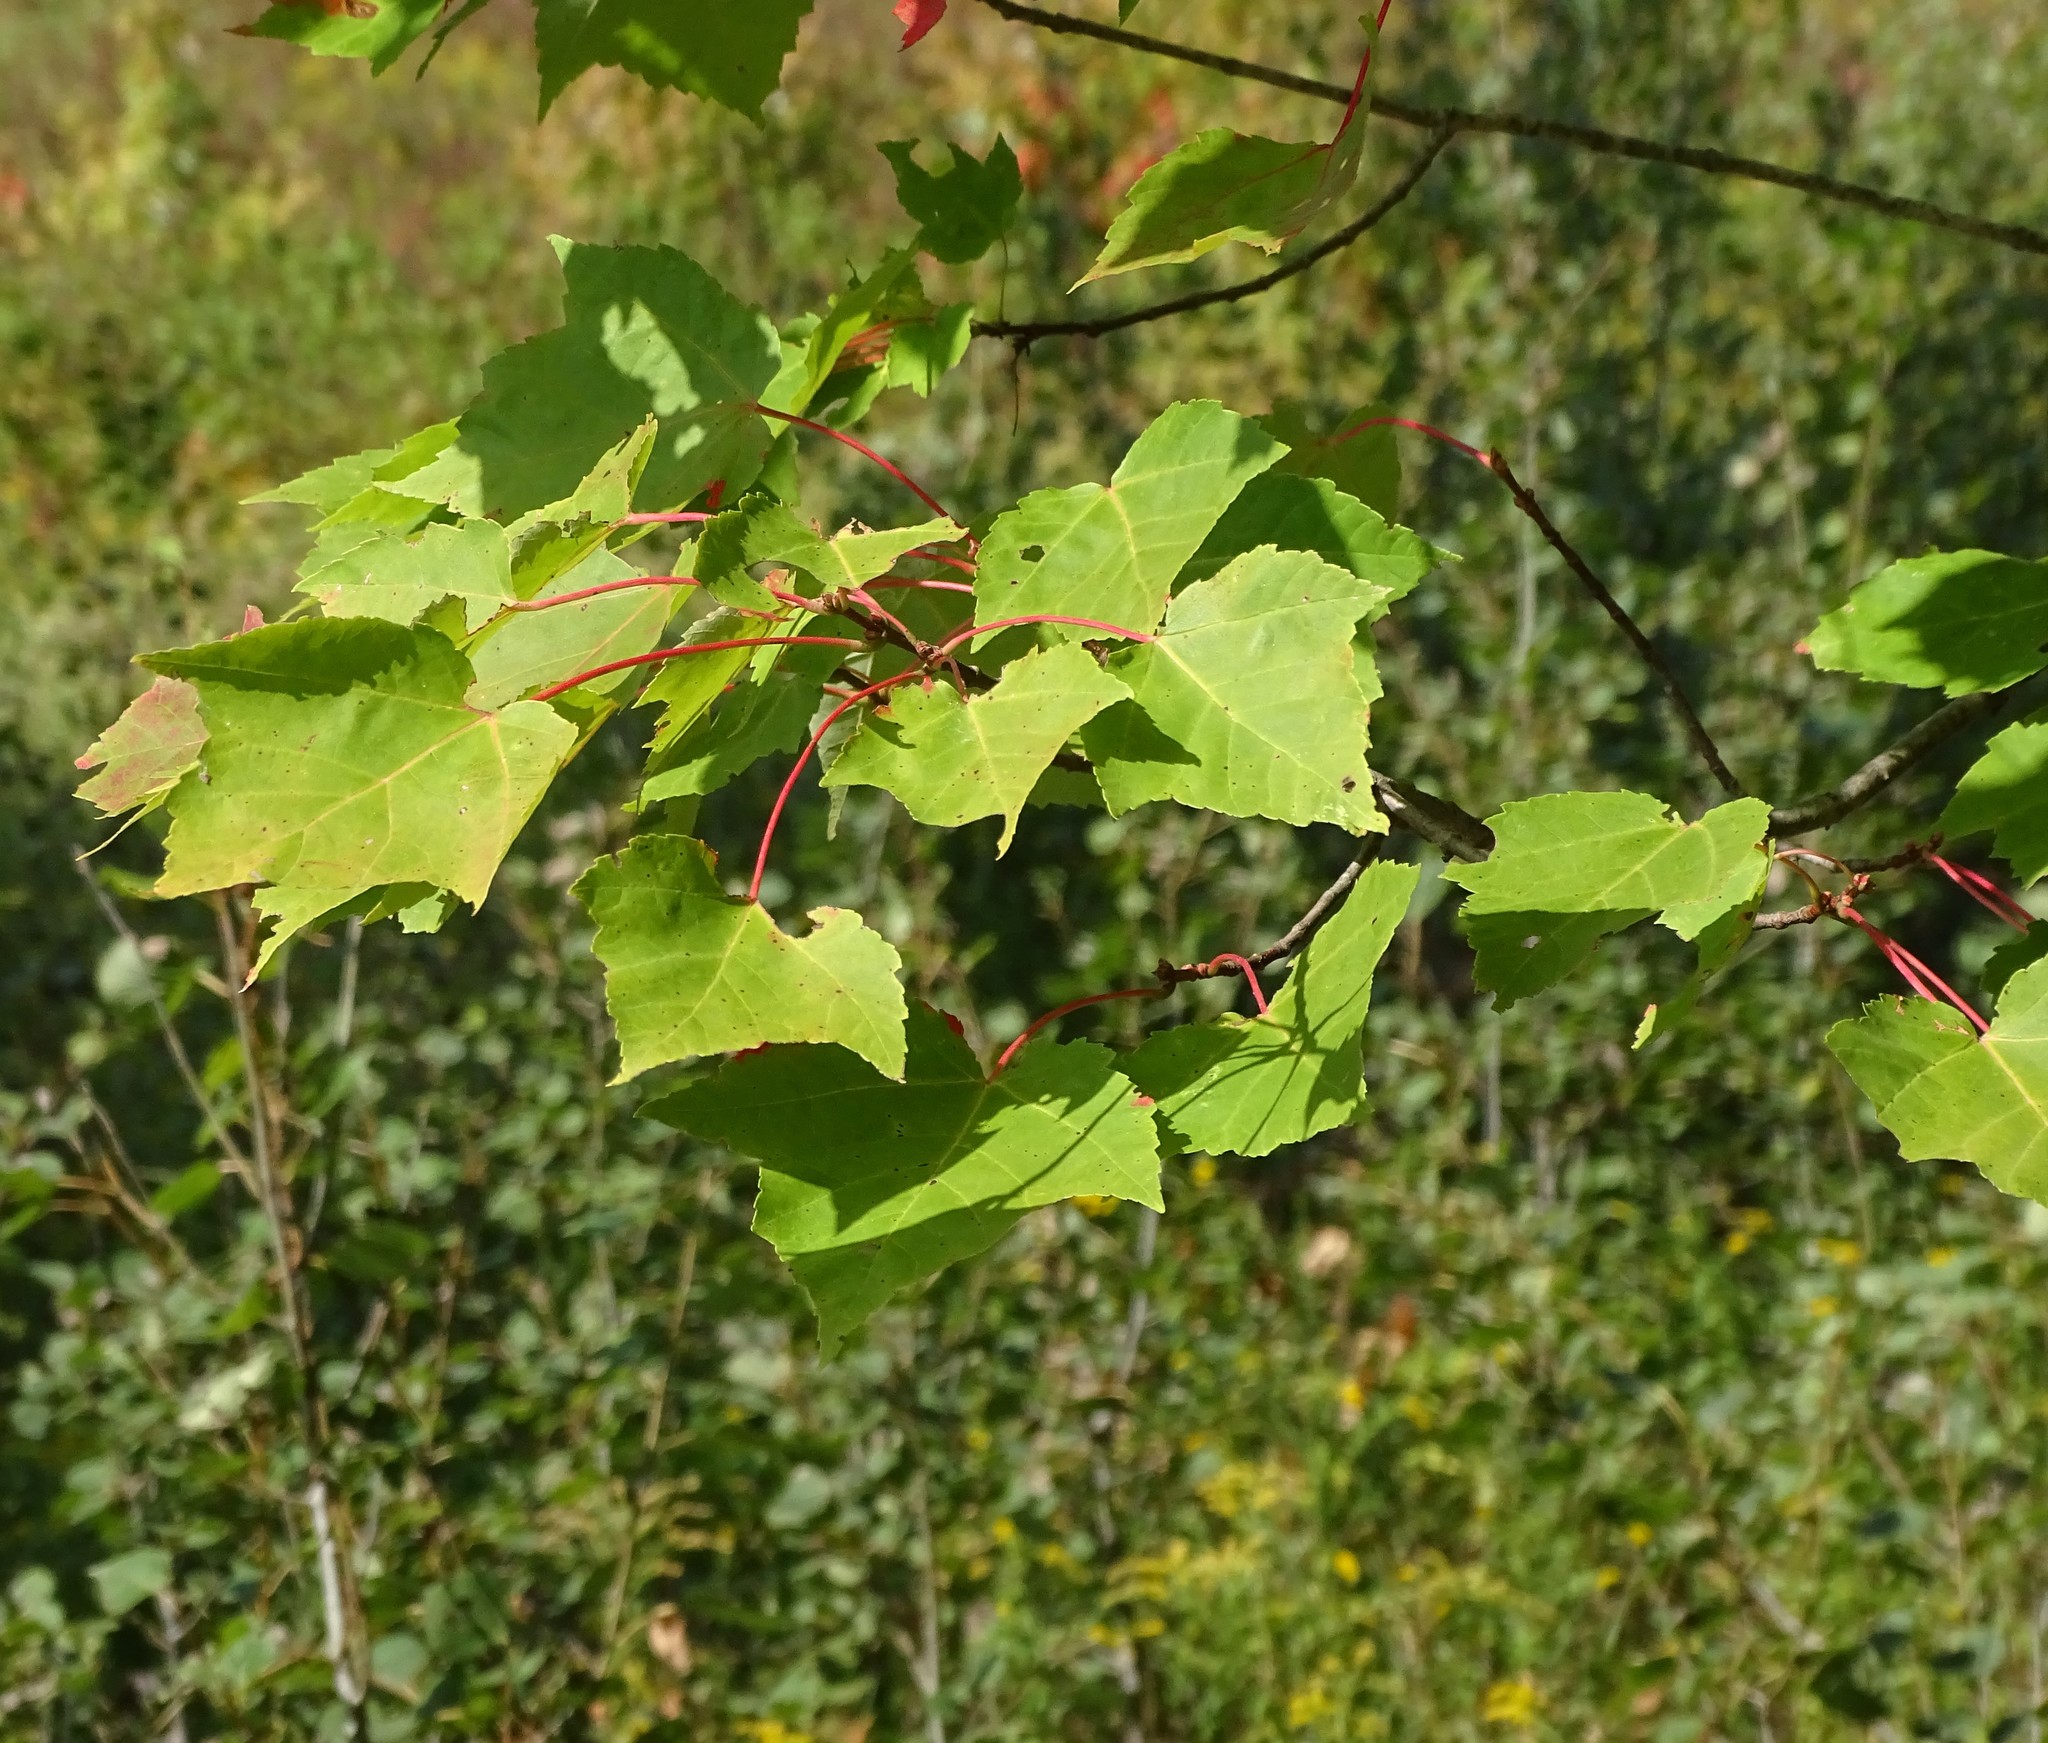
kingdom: Plantae
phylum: Tracheophyta
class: Magnoliopsida
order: Sapindales
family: Sapindaceae
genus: Acer
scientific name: Acer rubrum
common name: Red maple
